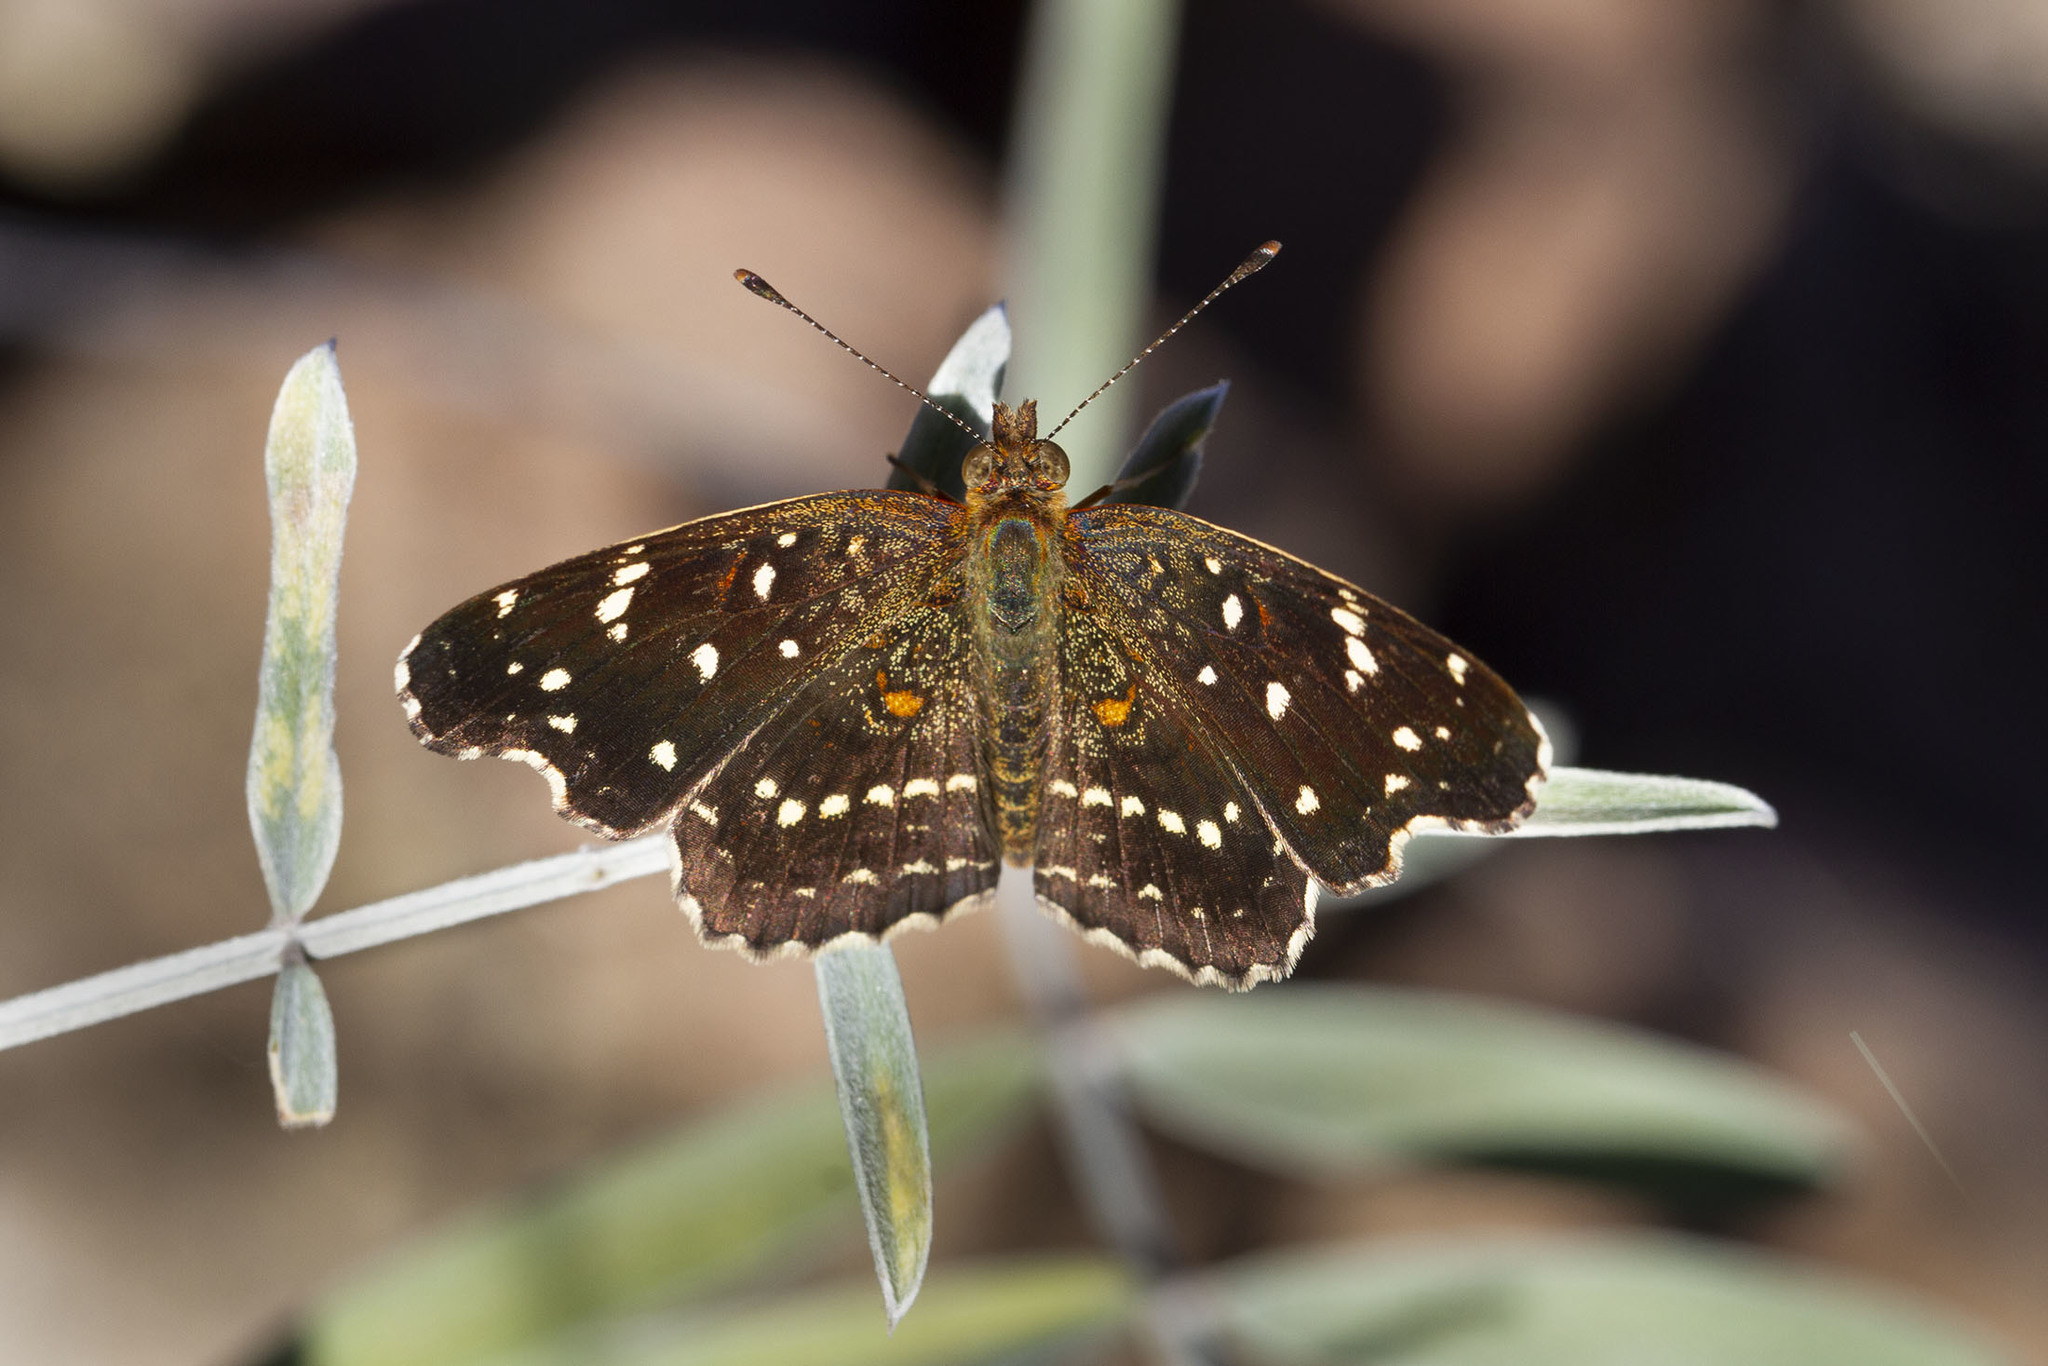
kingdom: Animalia
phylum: Arthropoda
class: Insecta
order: Lepidoptera
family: Nymphalidae
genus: Anthanassa
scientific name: Anthanassa texana
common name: Texan crescent
